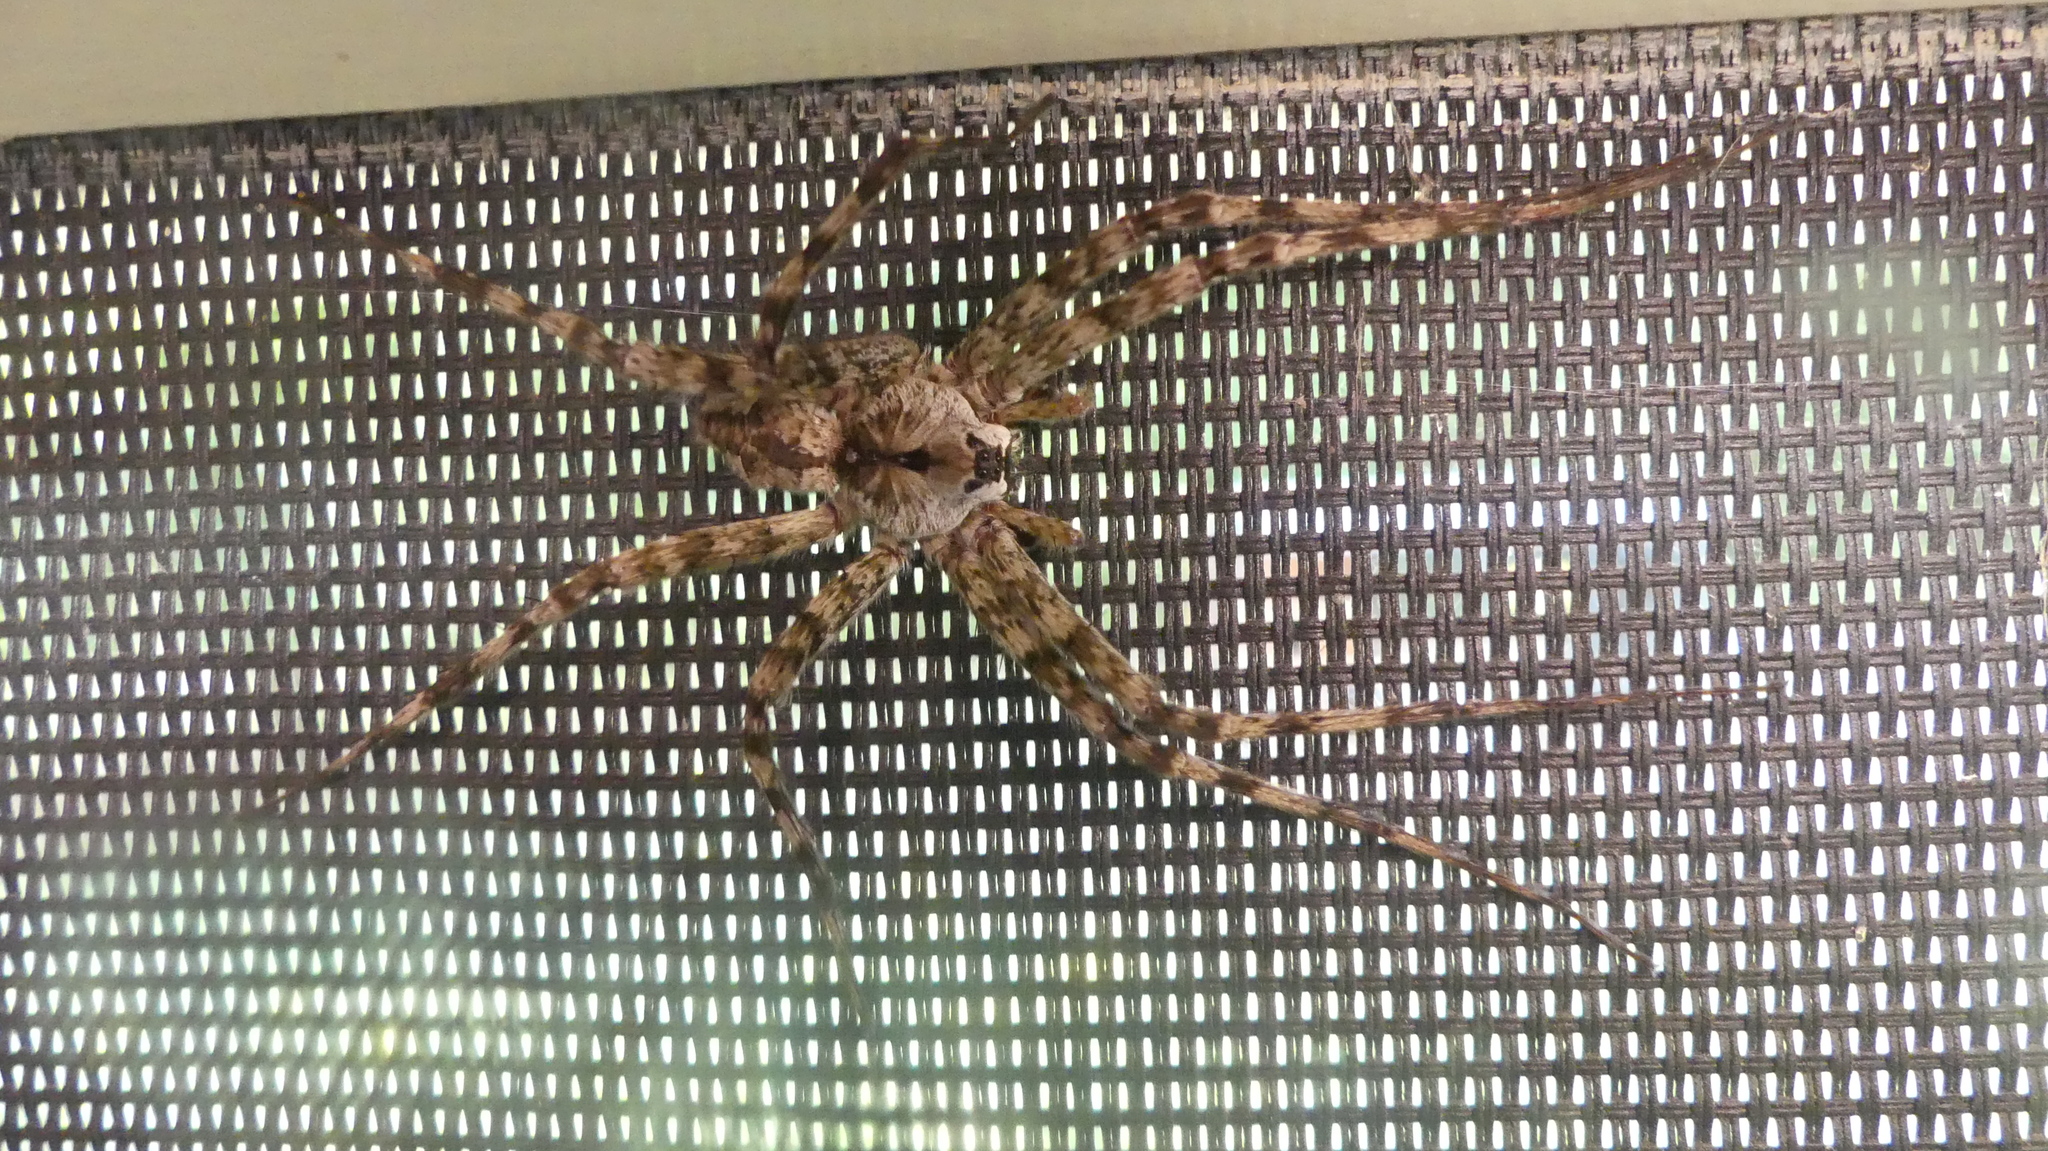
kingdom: Animalia
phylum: Arthropoda
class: Arachnida
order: Araneae
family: Pisauridae
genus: Dolomedes
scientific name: Dolomedes albineus
